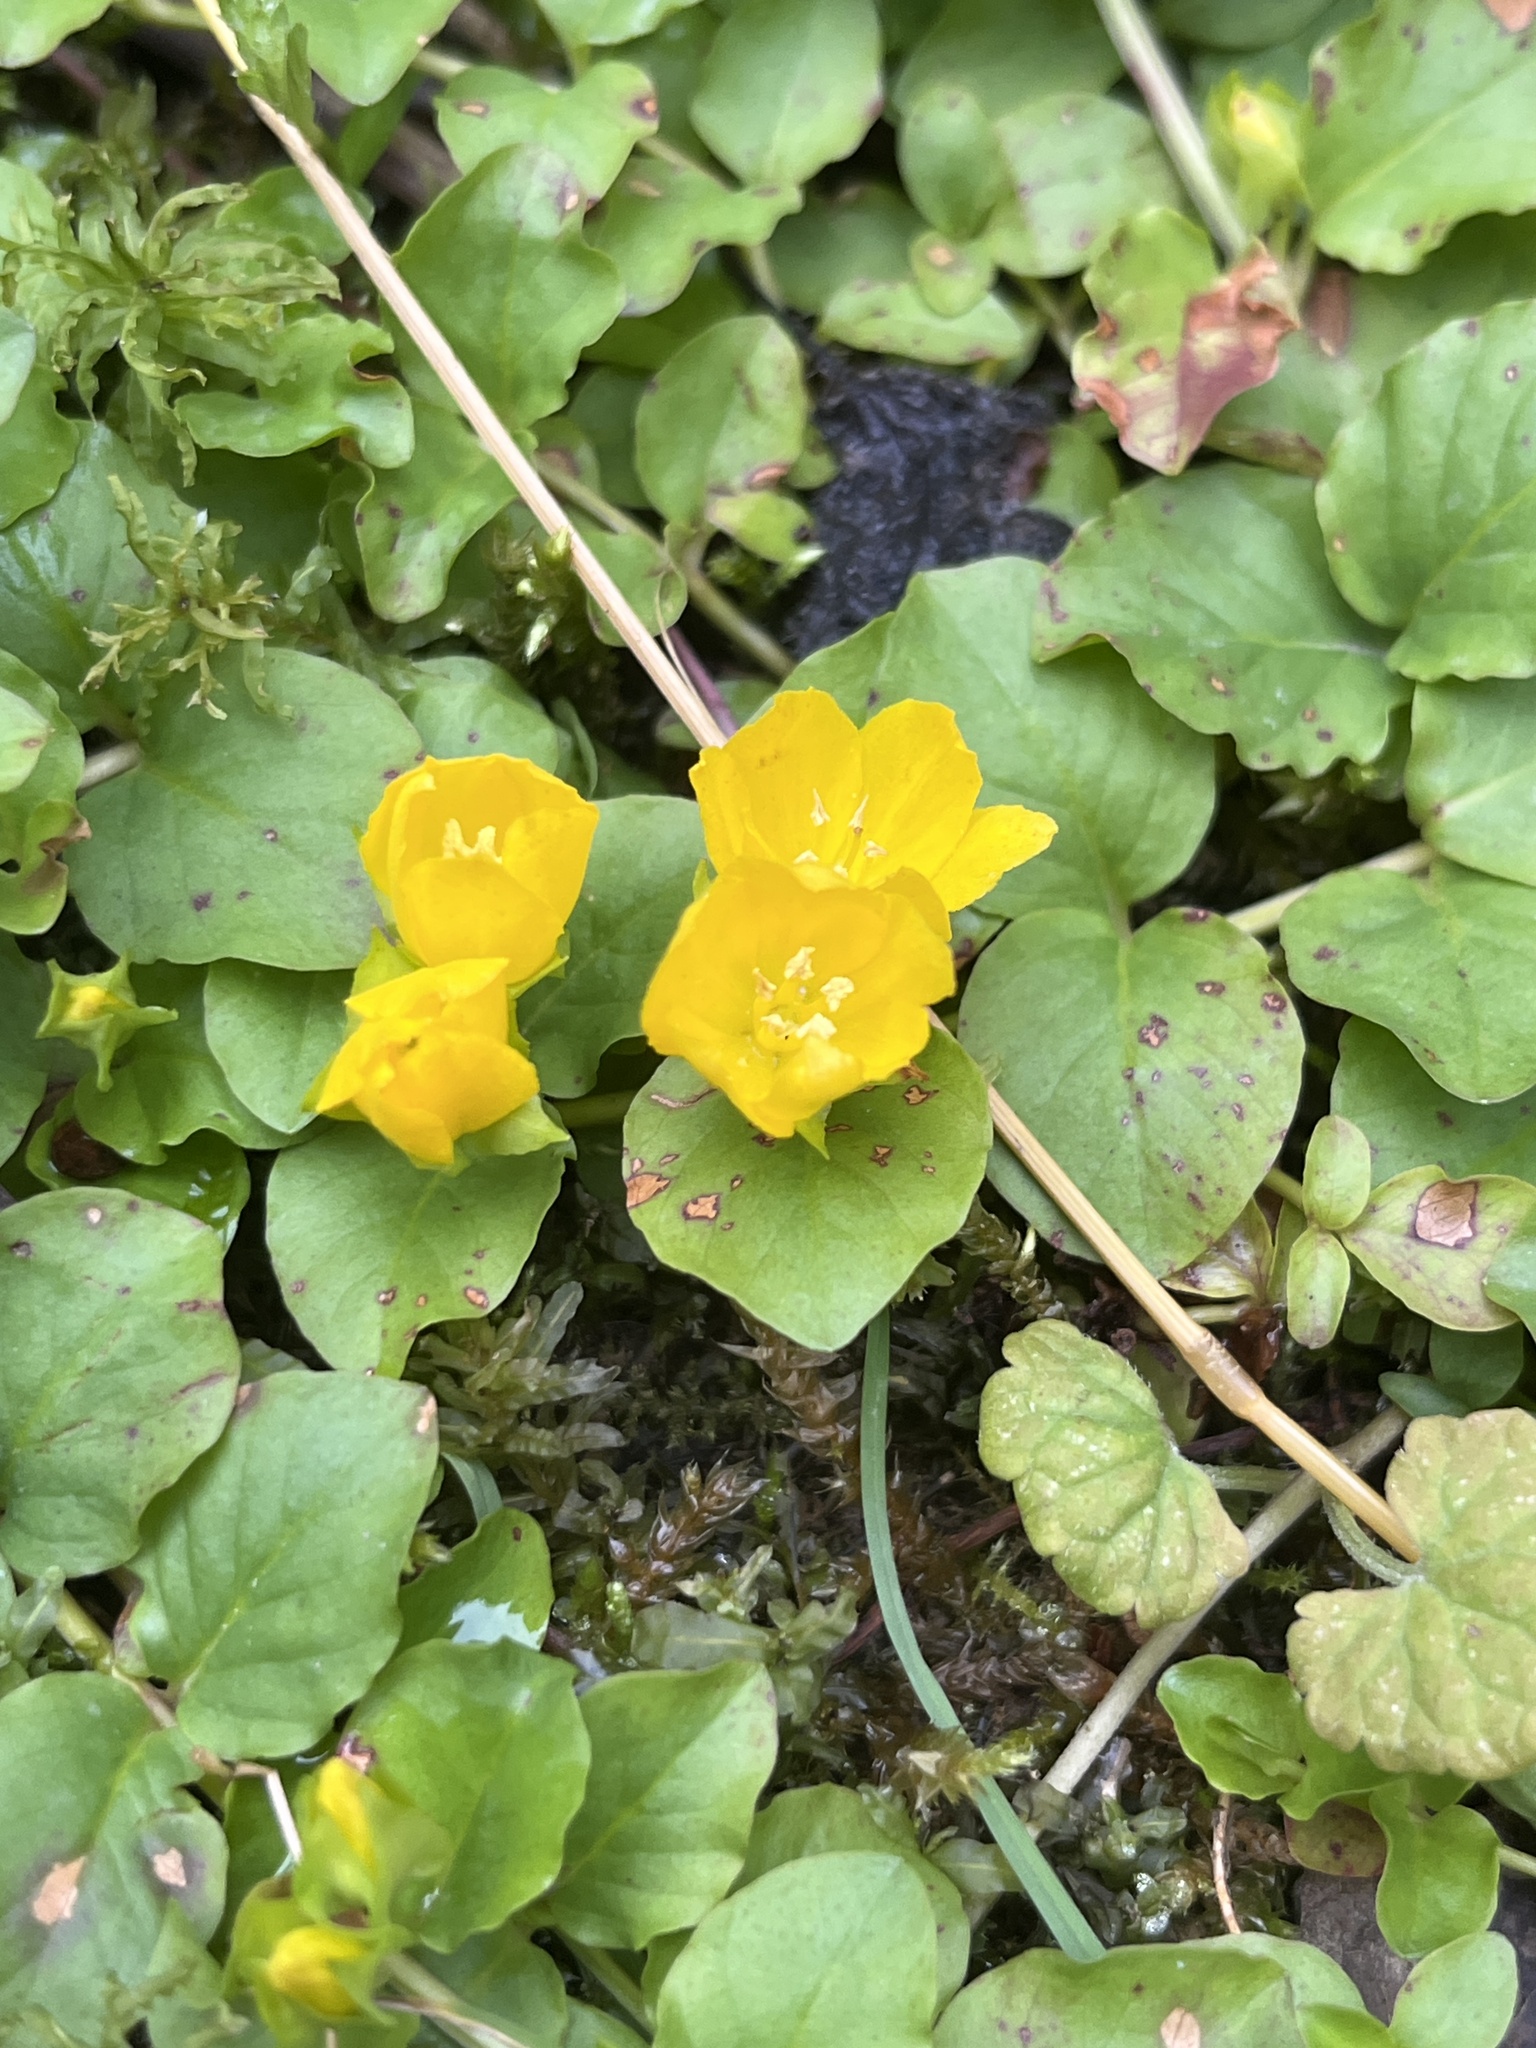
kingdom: Plantae
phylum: Tracheophyta
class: Magnoliopsida
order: Ericales
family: Primulaceae
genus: Lysimachia
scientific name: Lysimachia nummularia
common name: Moneywort
